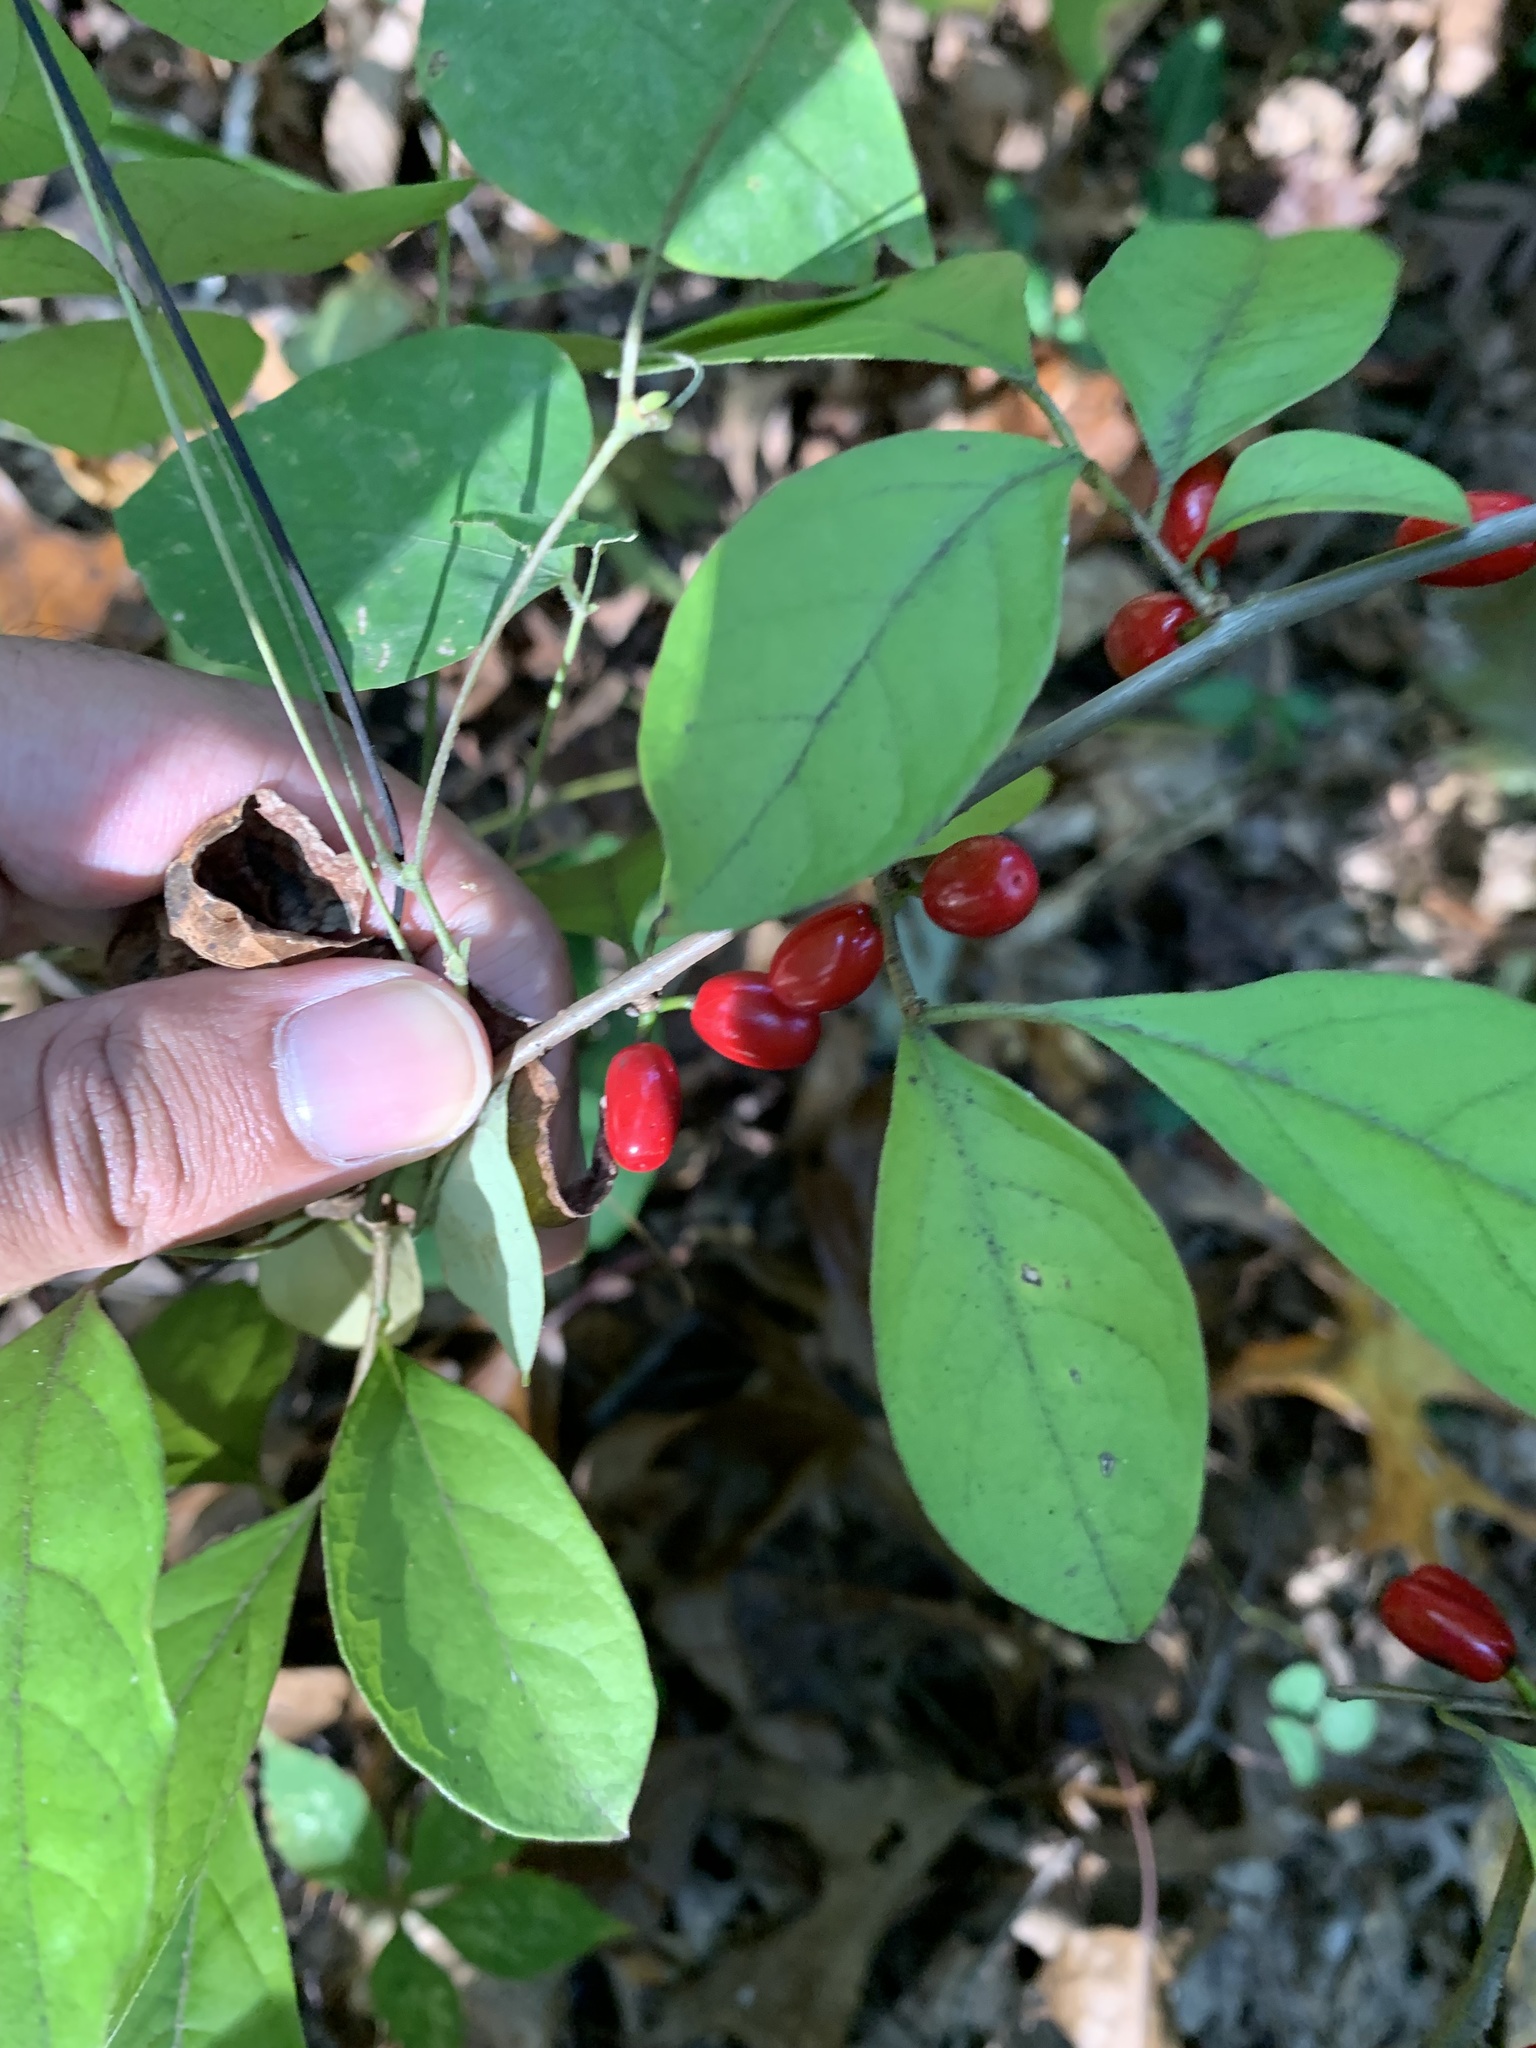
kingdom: Plantae
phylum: Tracheophyta
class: Magnoliopsida
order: Laurales
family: Lauraceae
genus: Lindera
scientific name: Lindera benzoin
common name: Spicebush
